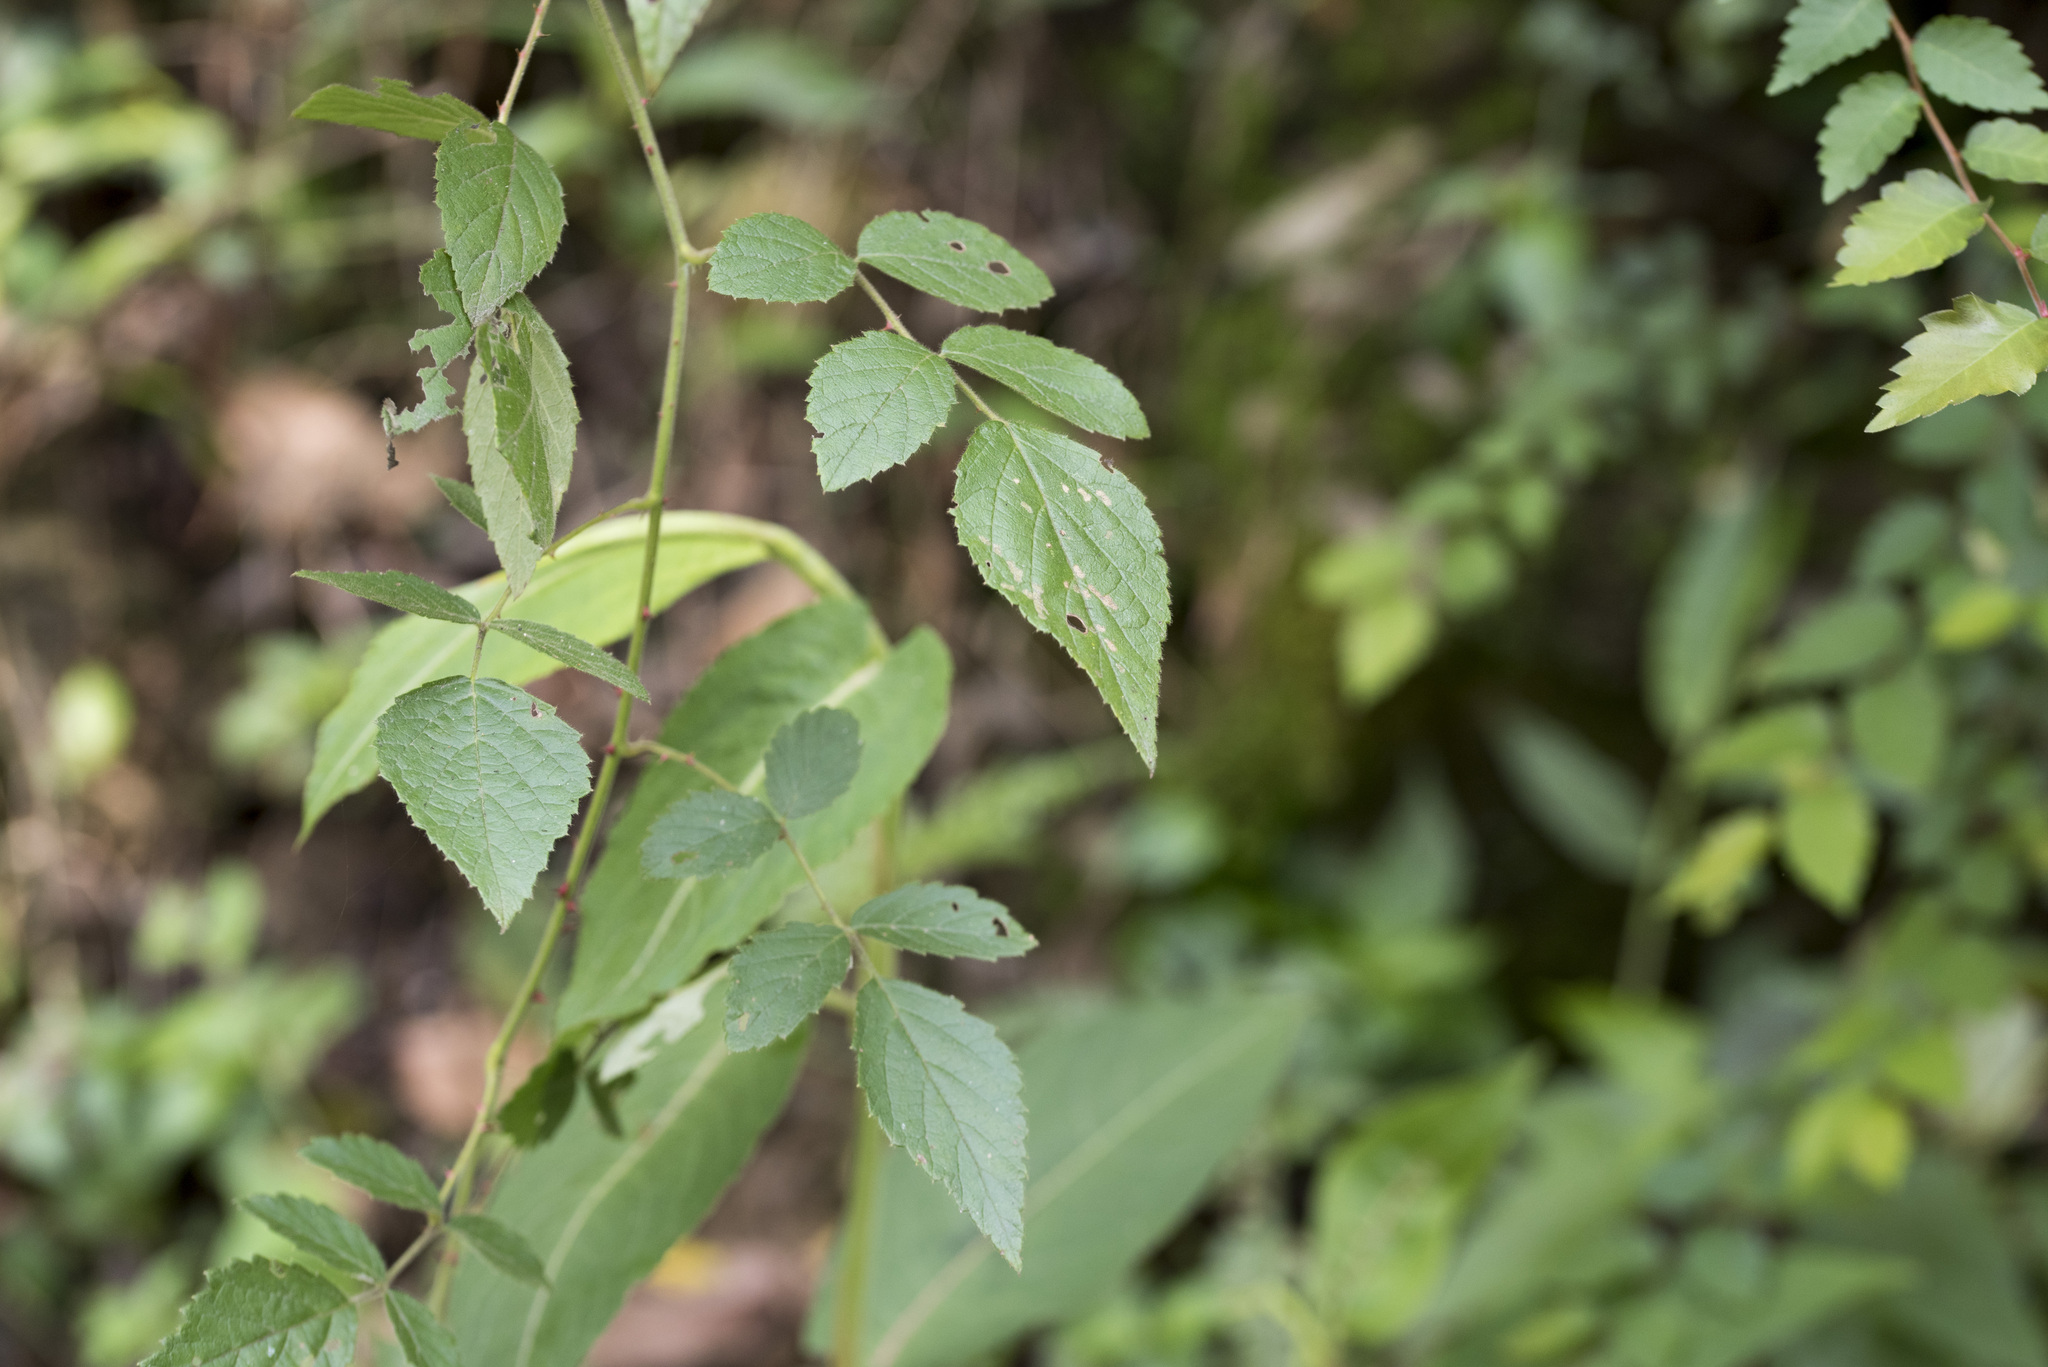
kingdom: Plantae
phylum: Tracheophyta
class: Magnoliopsida
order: Rosales
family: Rosaceae
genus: Rubus
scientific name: Rubus parviaraliifolius
